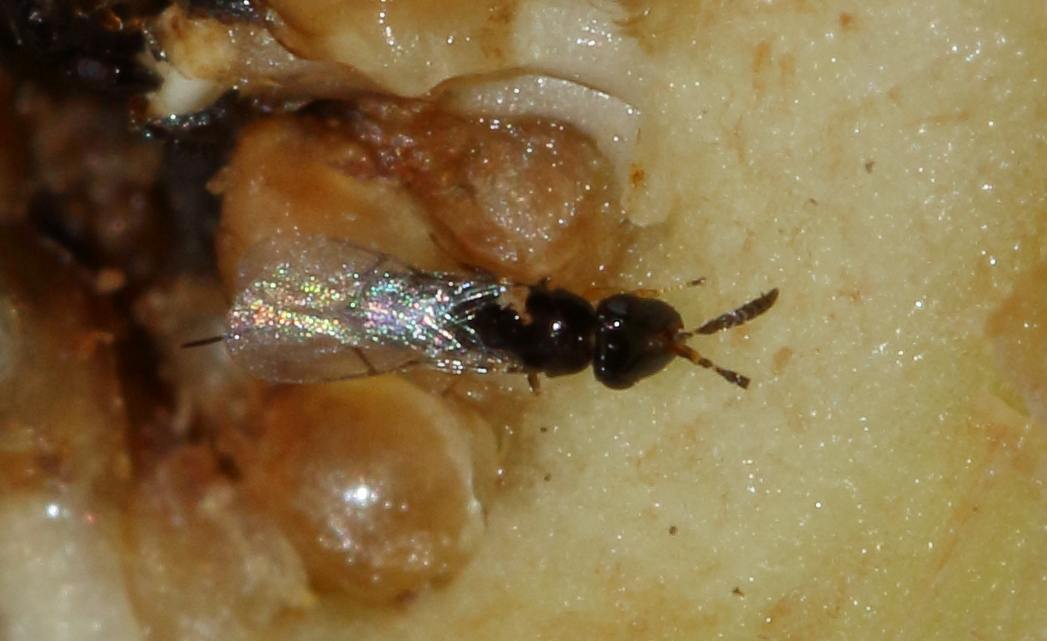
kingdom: Animalia
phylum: Arthropoda
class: Insecta
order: Hymenoptera
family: Agaonidae
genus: Elisabethiella
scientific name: Elisabethiella comptoni
